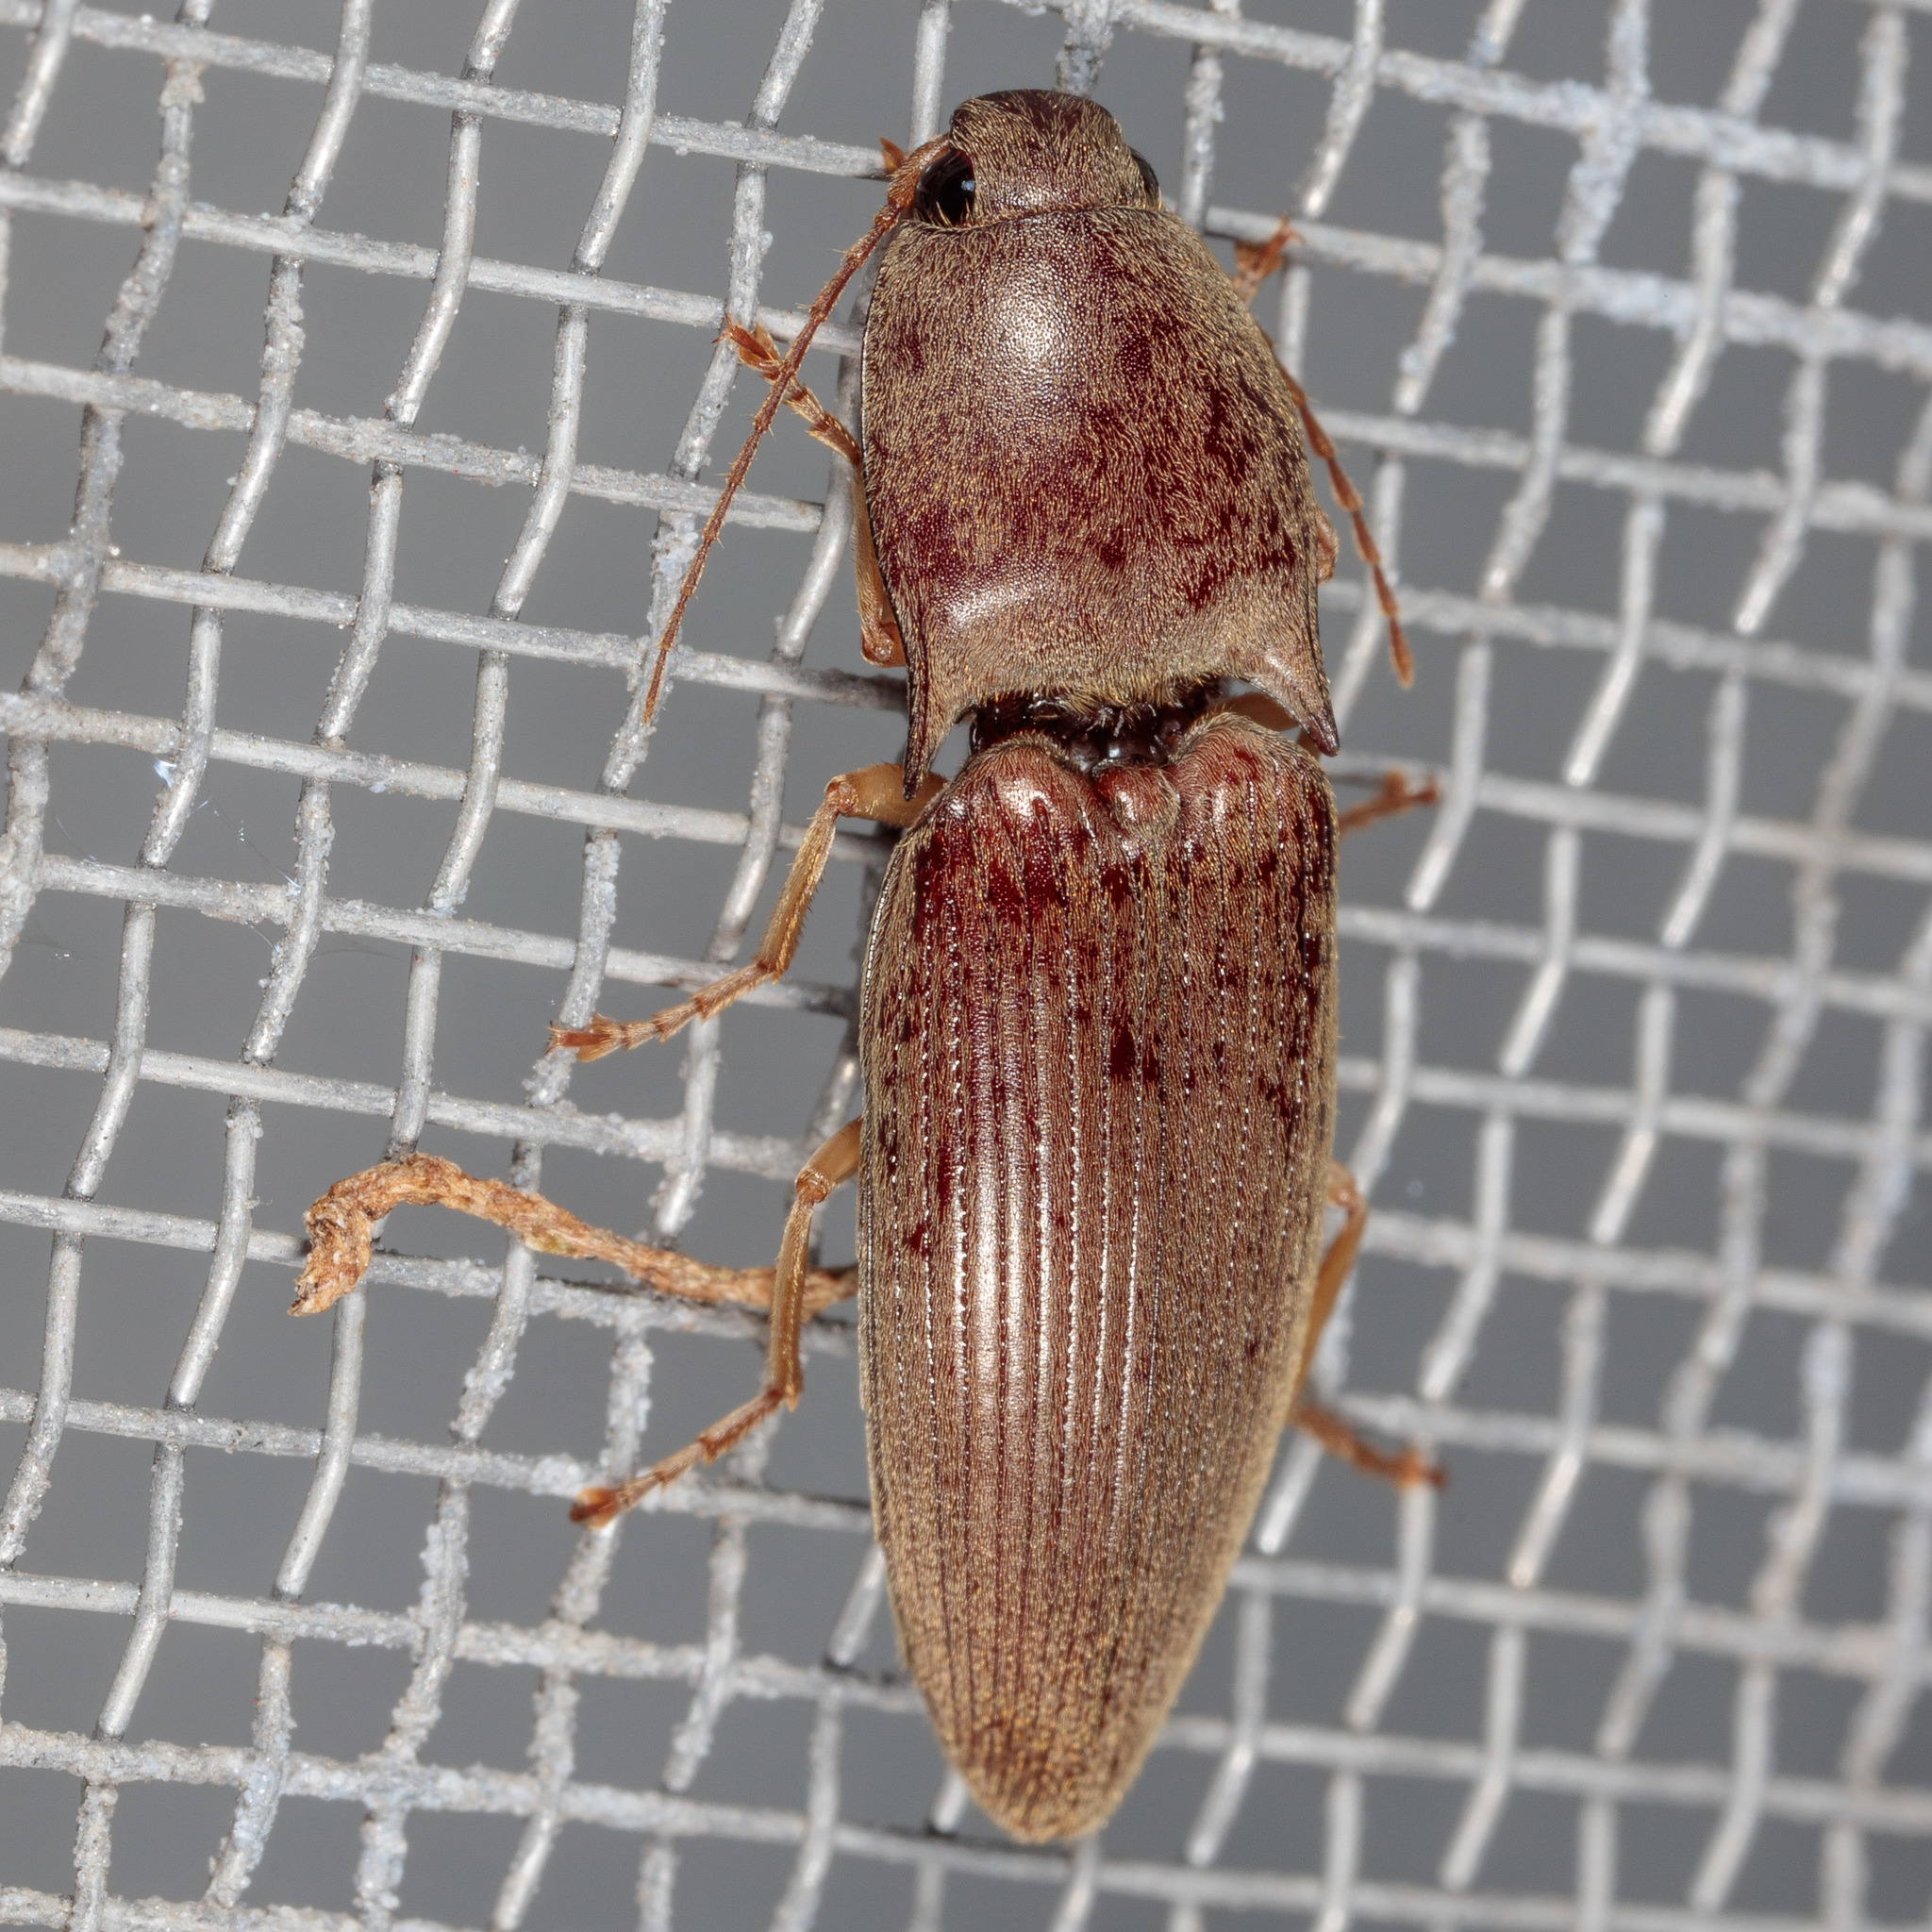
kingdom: Animalia
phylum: Arthropoda
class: Insecta
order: Coleoptera
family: Elateridae
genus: Monocrepidius
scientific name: Monocrepidius lividus
